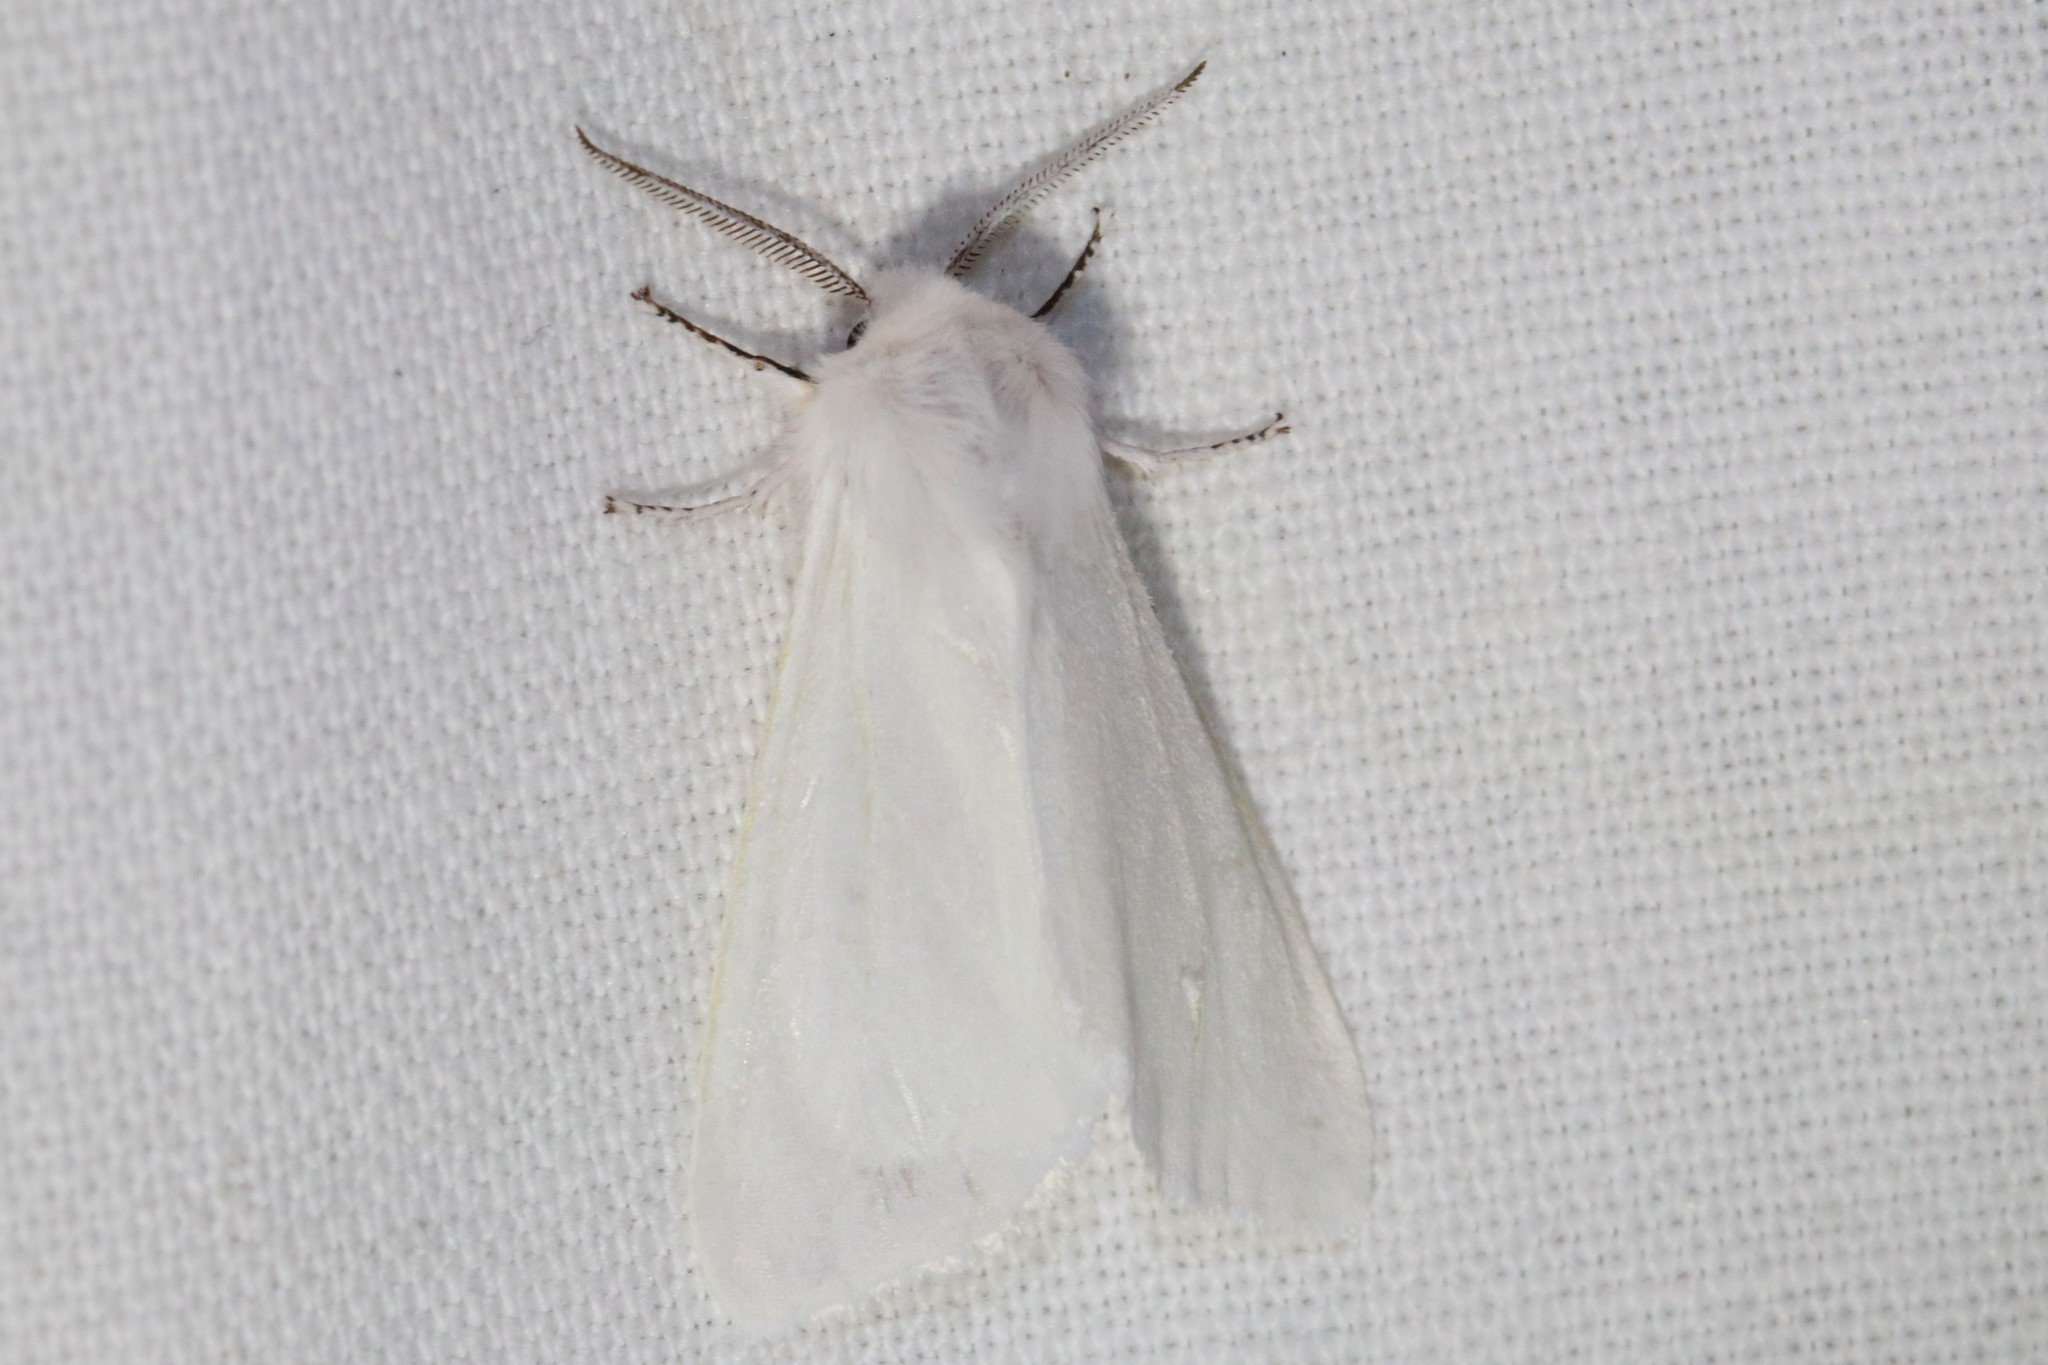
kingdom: Animalia
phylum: Arthropoda
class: Insecta
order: Lepidoptera
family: Erebidae
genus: Hyphantria
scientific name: Hyphantria cunea
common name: American white moth
